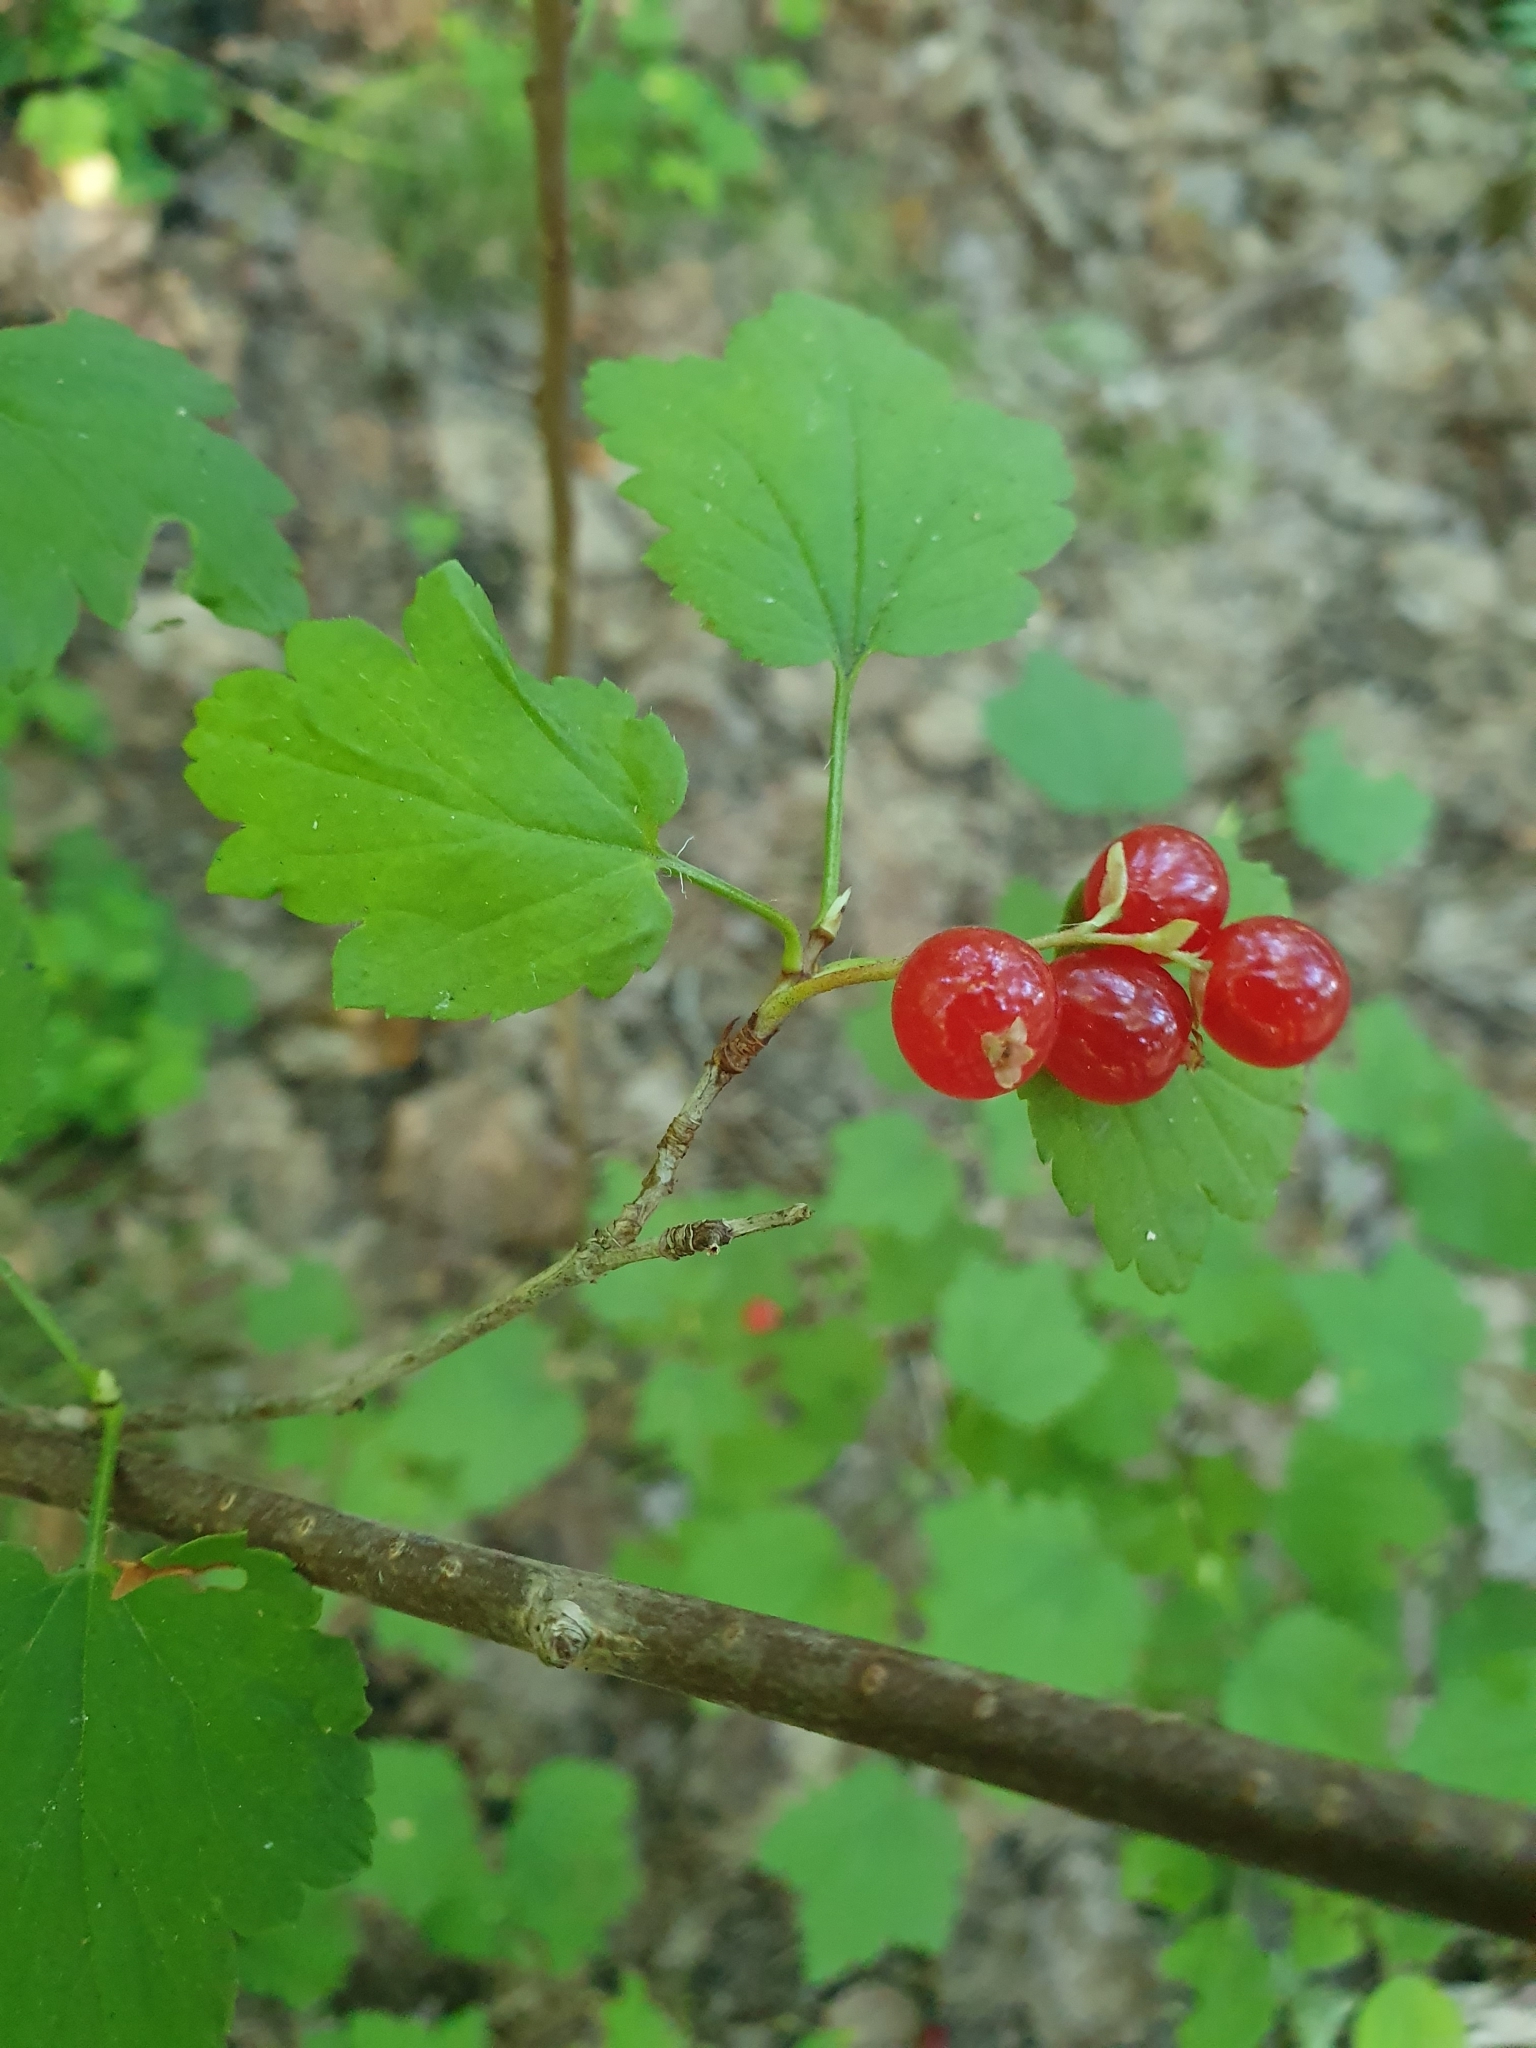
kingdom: Plantae
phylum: Tracheophyta
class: Magnoliopsida
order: Saxifragales
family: Grossulariaceae
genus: Ribes
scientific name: Ribes alpinum
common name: Alpine currant
